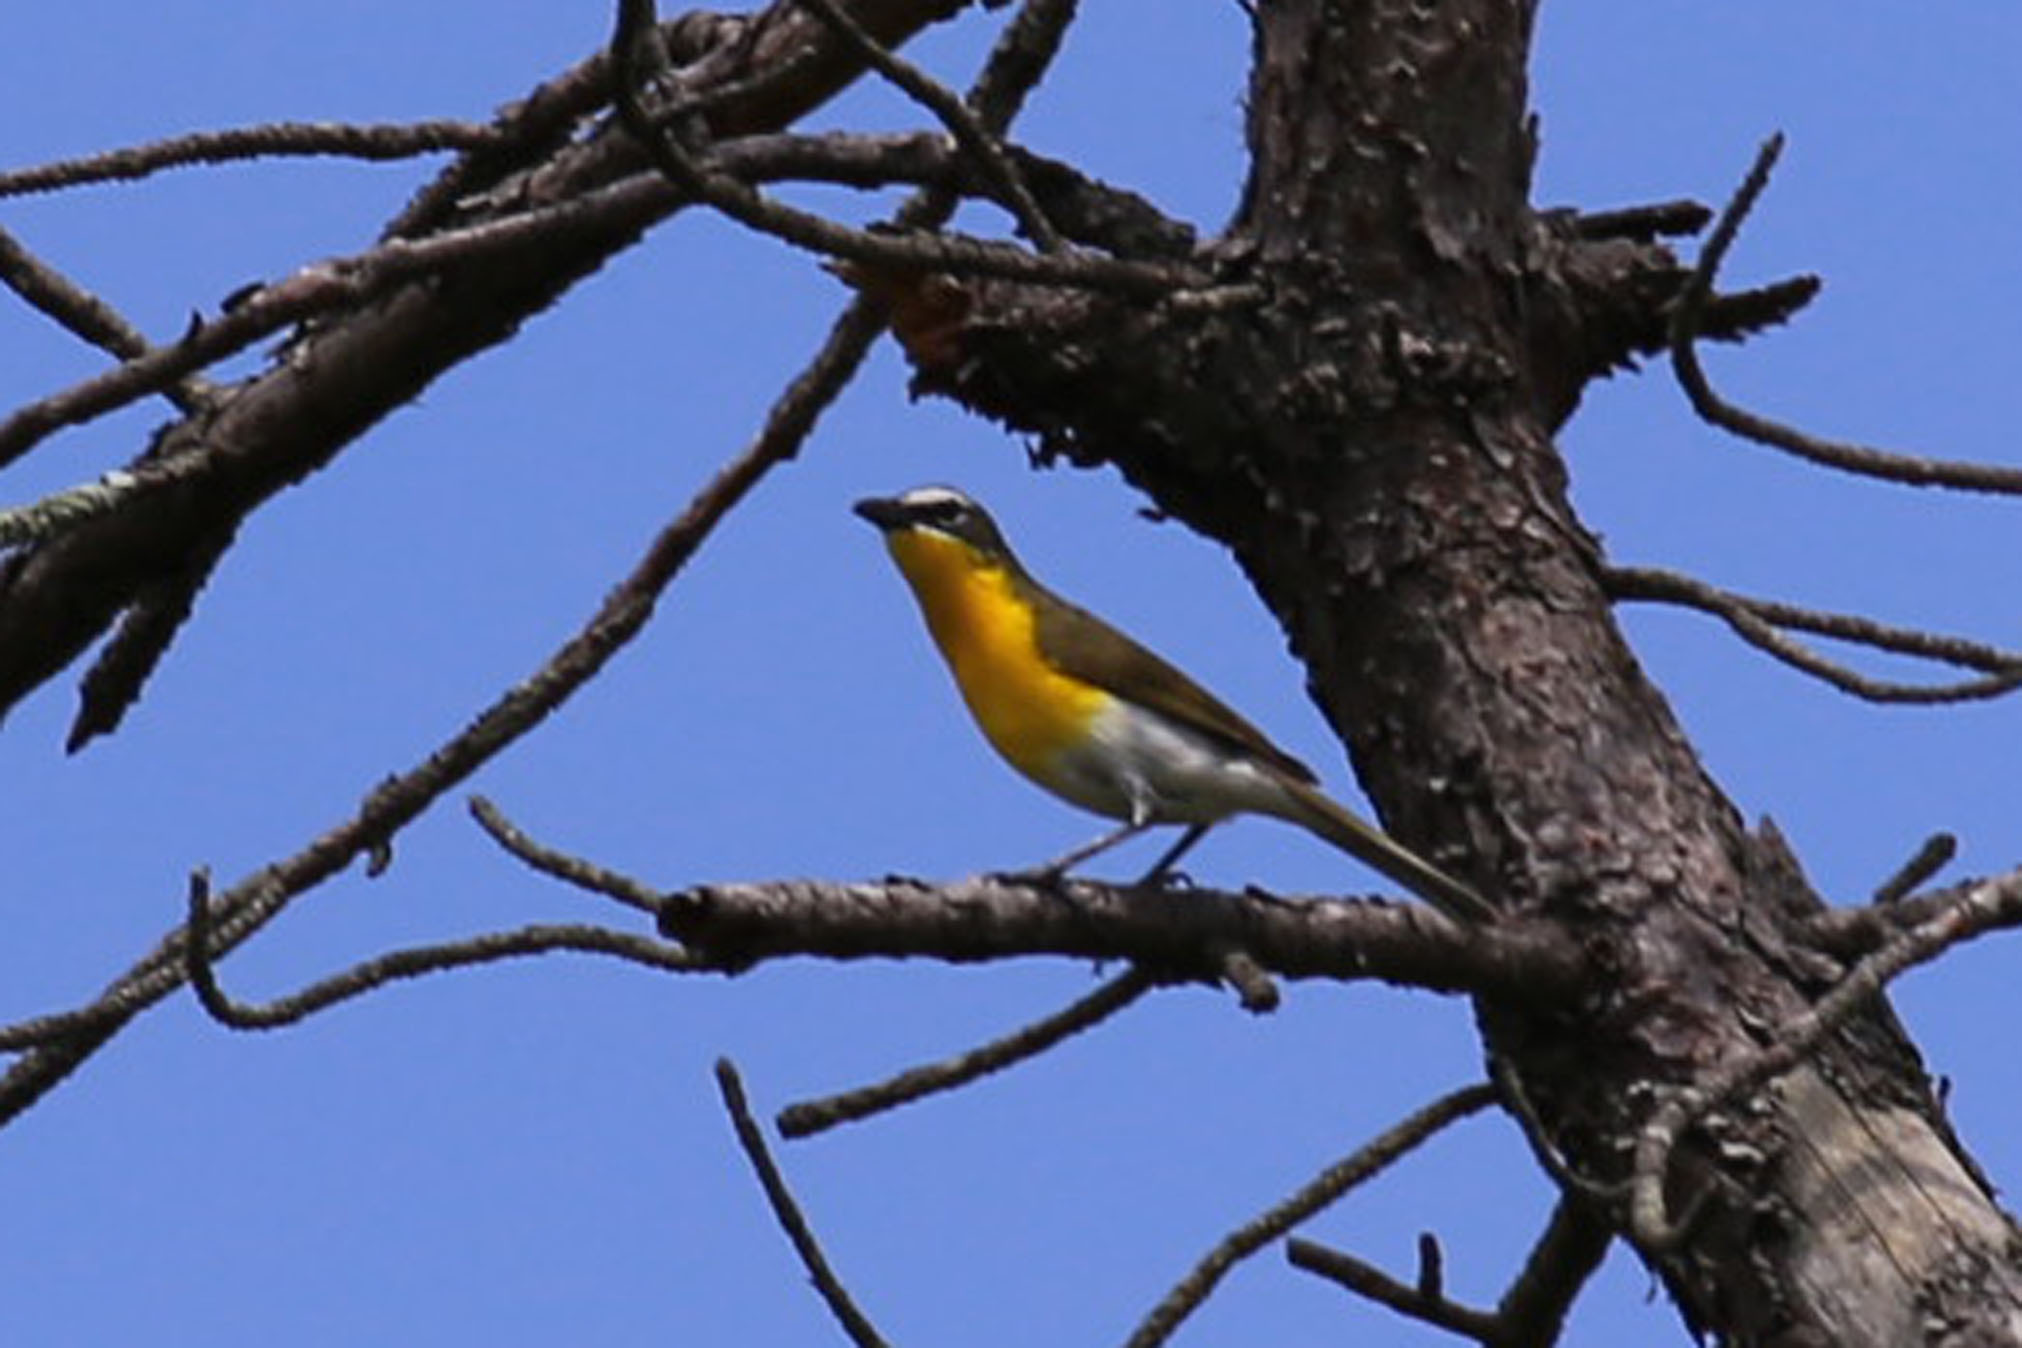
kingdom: Animalia
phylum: Chordata
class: Aves
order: Passeriformes
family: Parulidae
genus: Icteria
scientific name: Icteria virens
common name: Yellow-breasted chat
